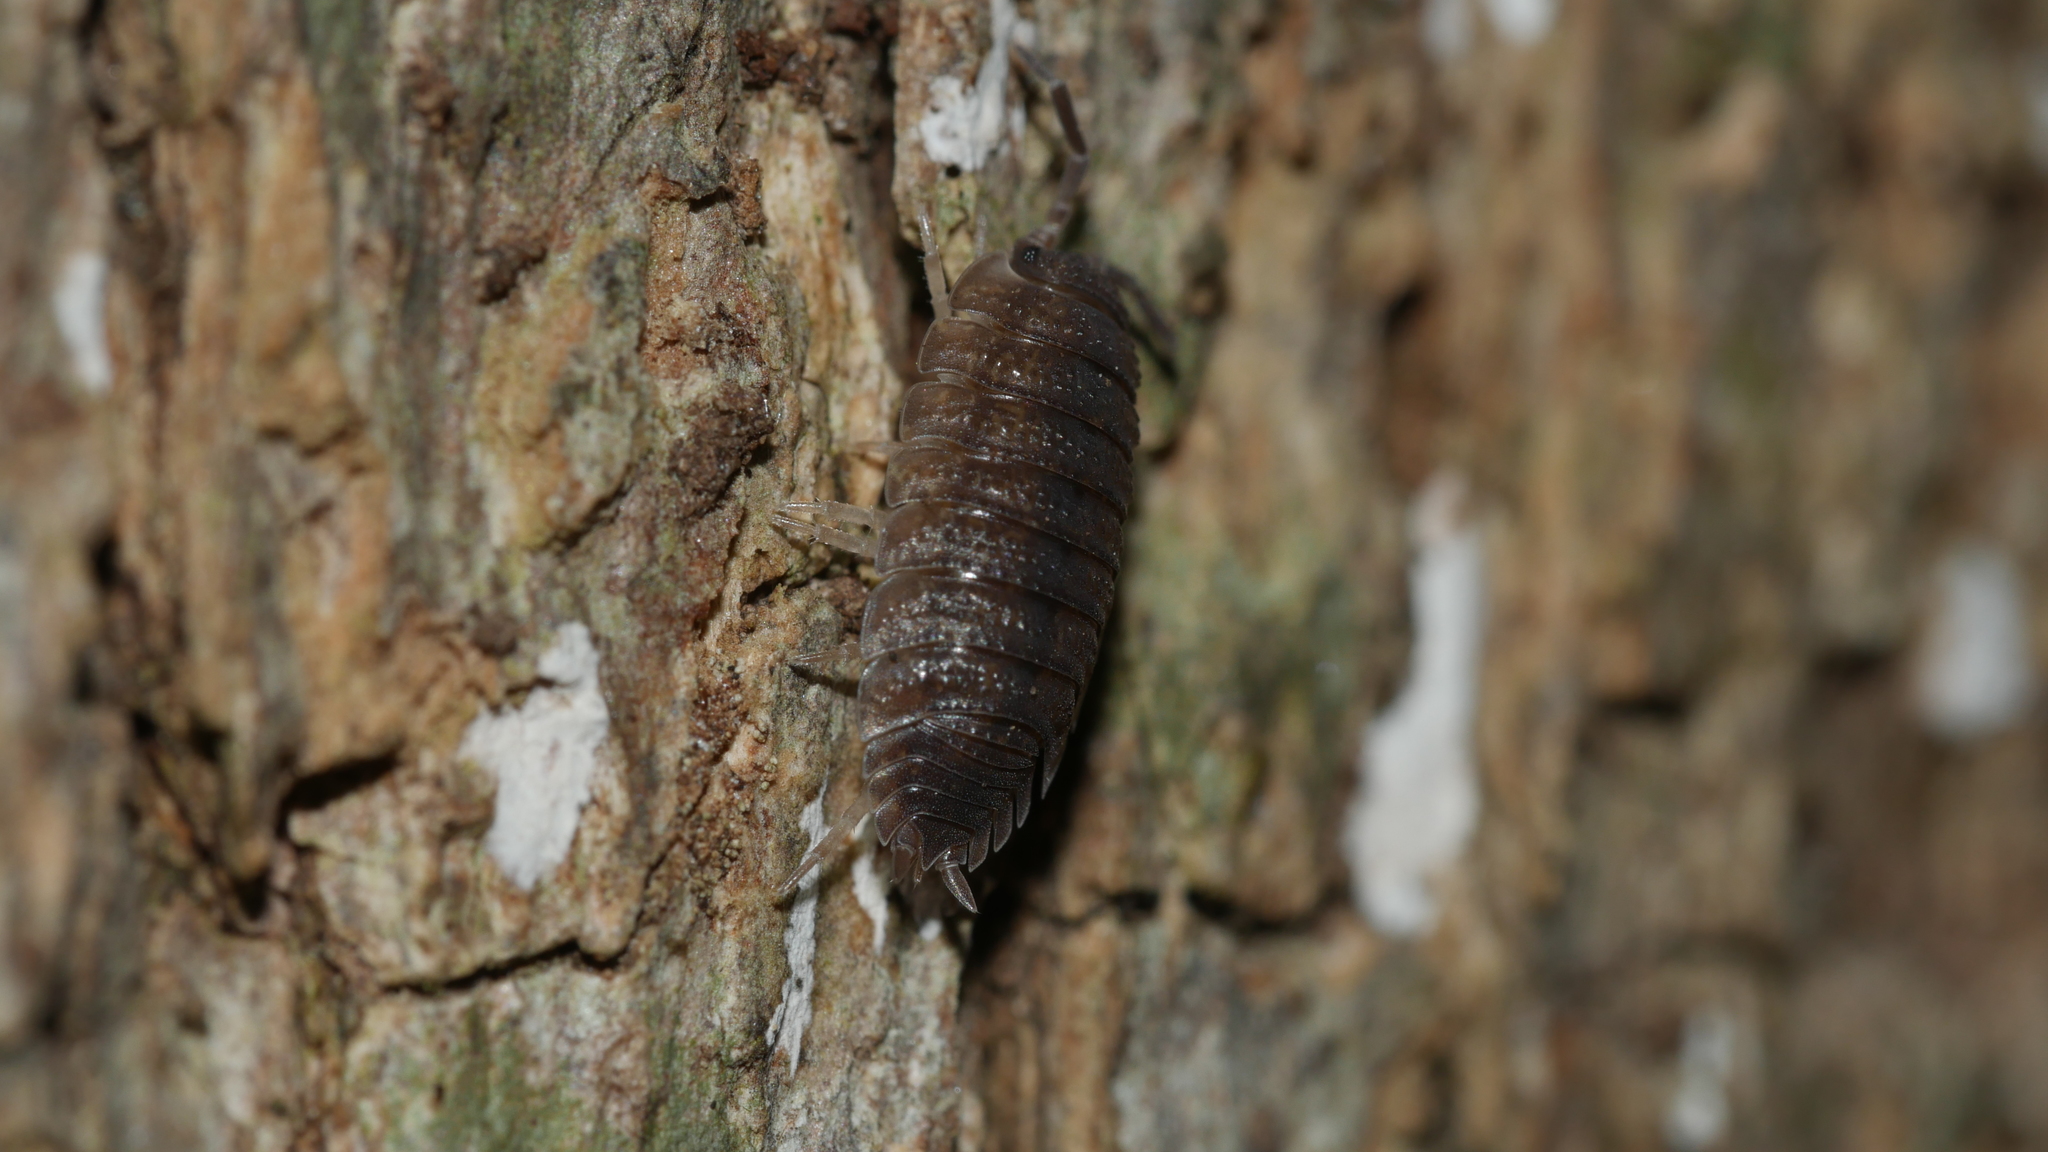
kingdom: Animalia
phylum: Arthropoda
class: Malacostraca
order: Isopoda
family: Porcellionidae
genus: Porcellio
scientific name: Porcellio scaber
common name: Common rough woodlouse
